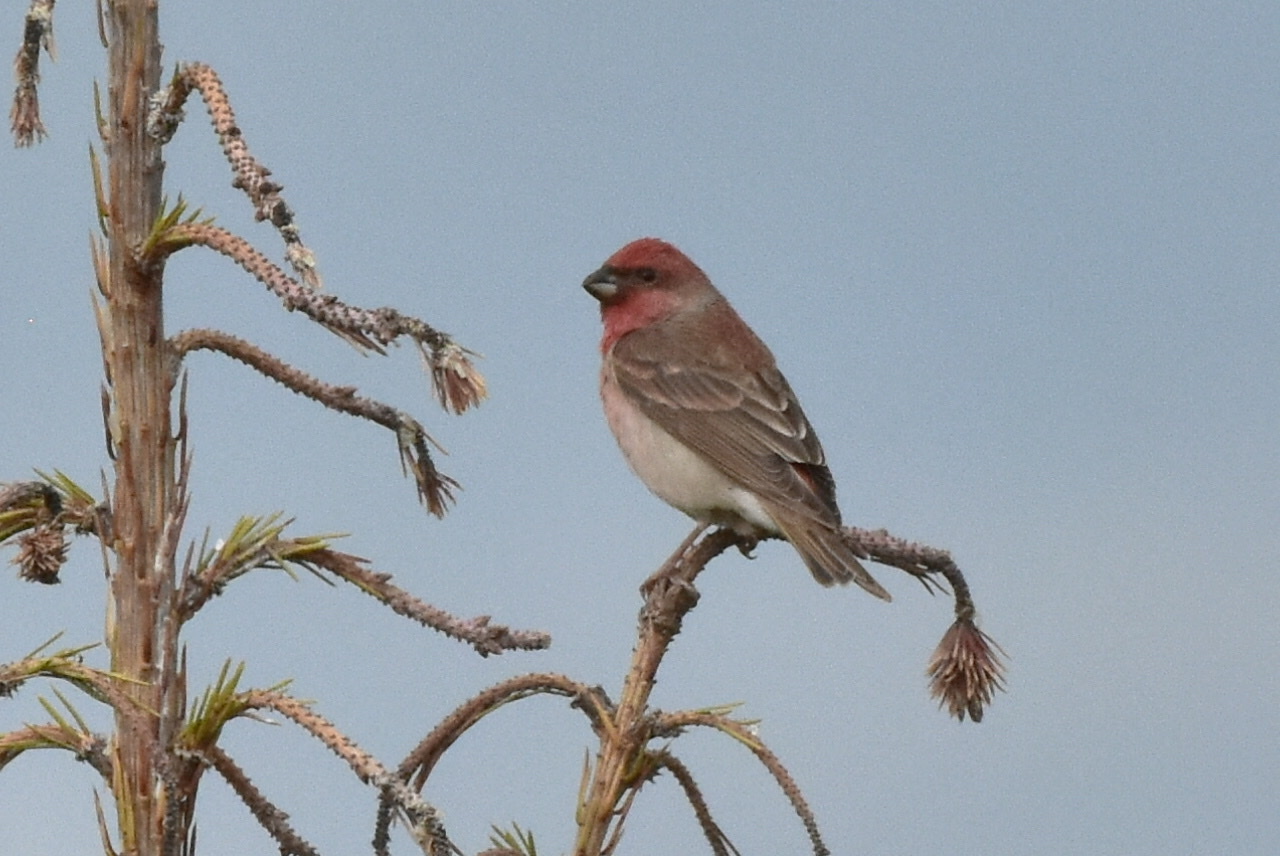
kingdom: Animalia
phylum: Chordata
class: Aves
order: Passeriformes
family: Fringillidae
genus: Carpodacus
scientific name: Carpodacus erythrinus
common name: Common rosefinch
